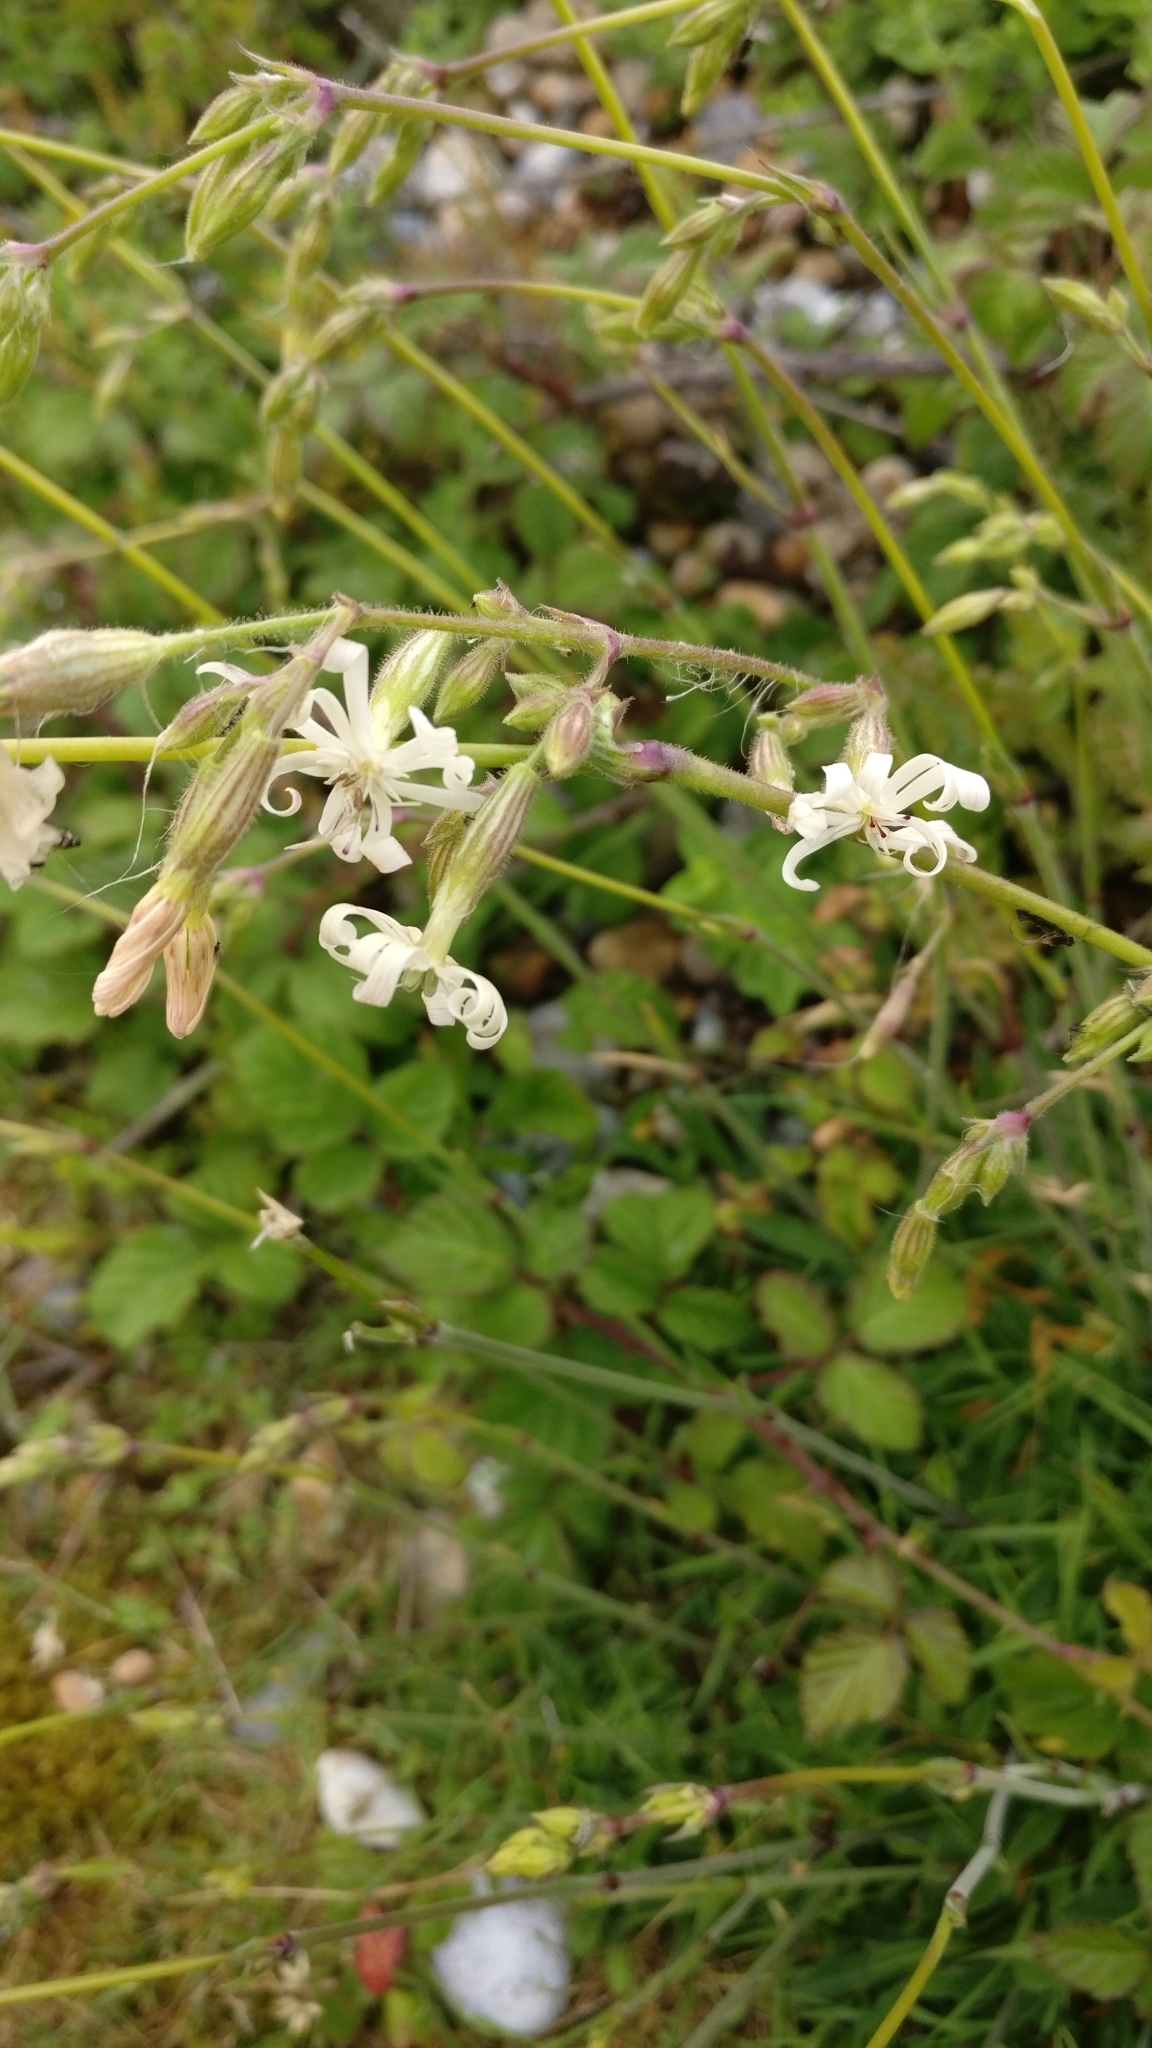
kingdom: Plantae
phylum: Tracheophyta
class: Magnoliopsida
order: Caryophyllales
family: Caryophyllaceae
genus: Silene
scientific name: Silene nutans
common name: Nottingham catchfly
